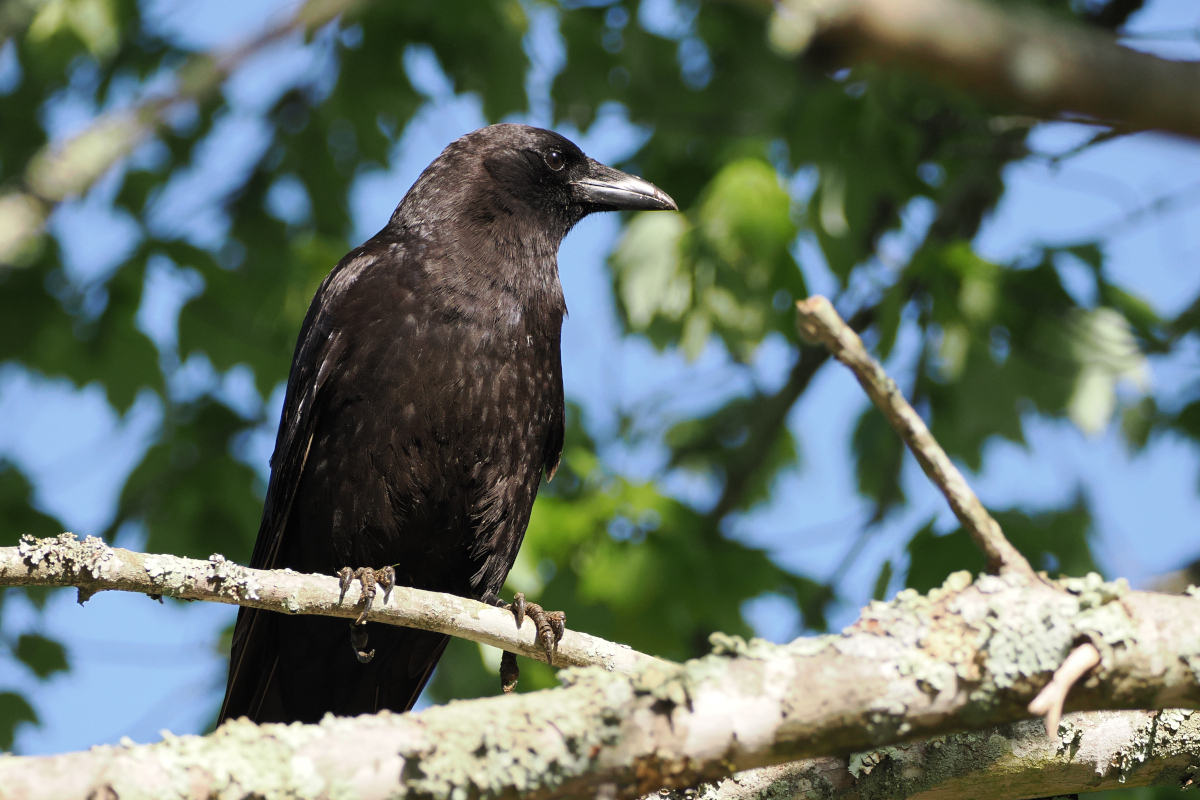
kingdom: Animalia
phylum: Chordata
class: Aves
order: Passeriformes
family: Corvidae
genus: Corvus
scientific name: Corvus brachyrhynchos
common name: American crow
